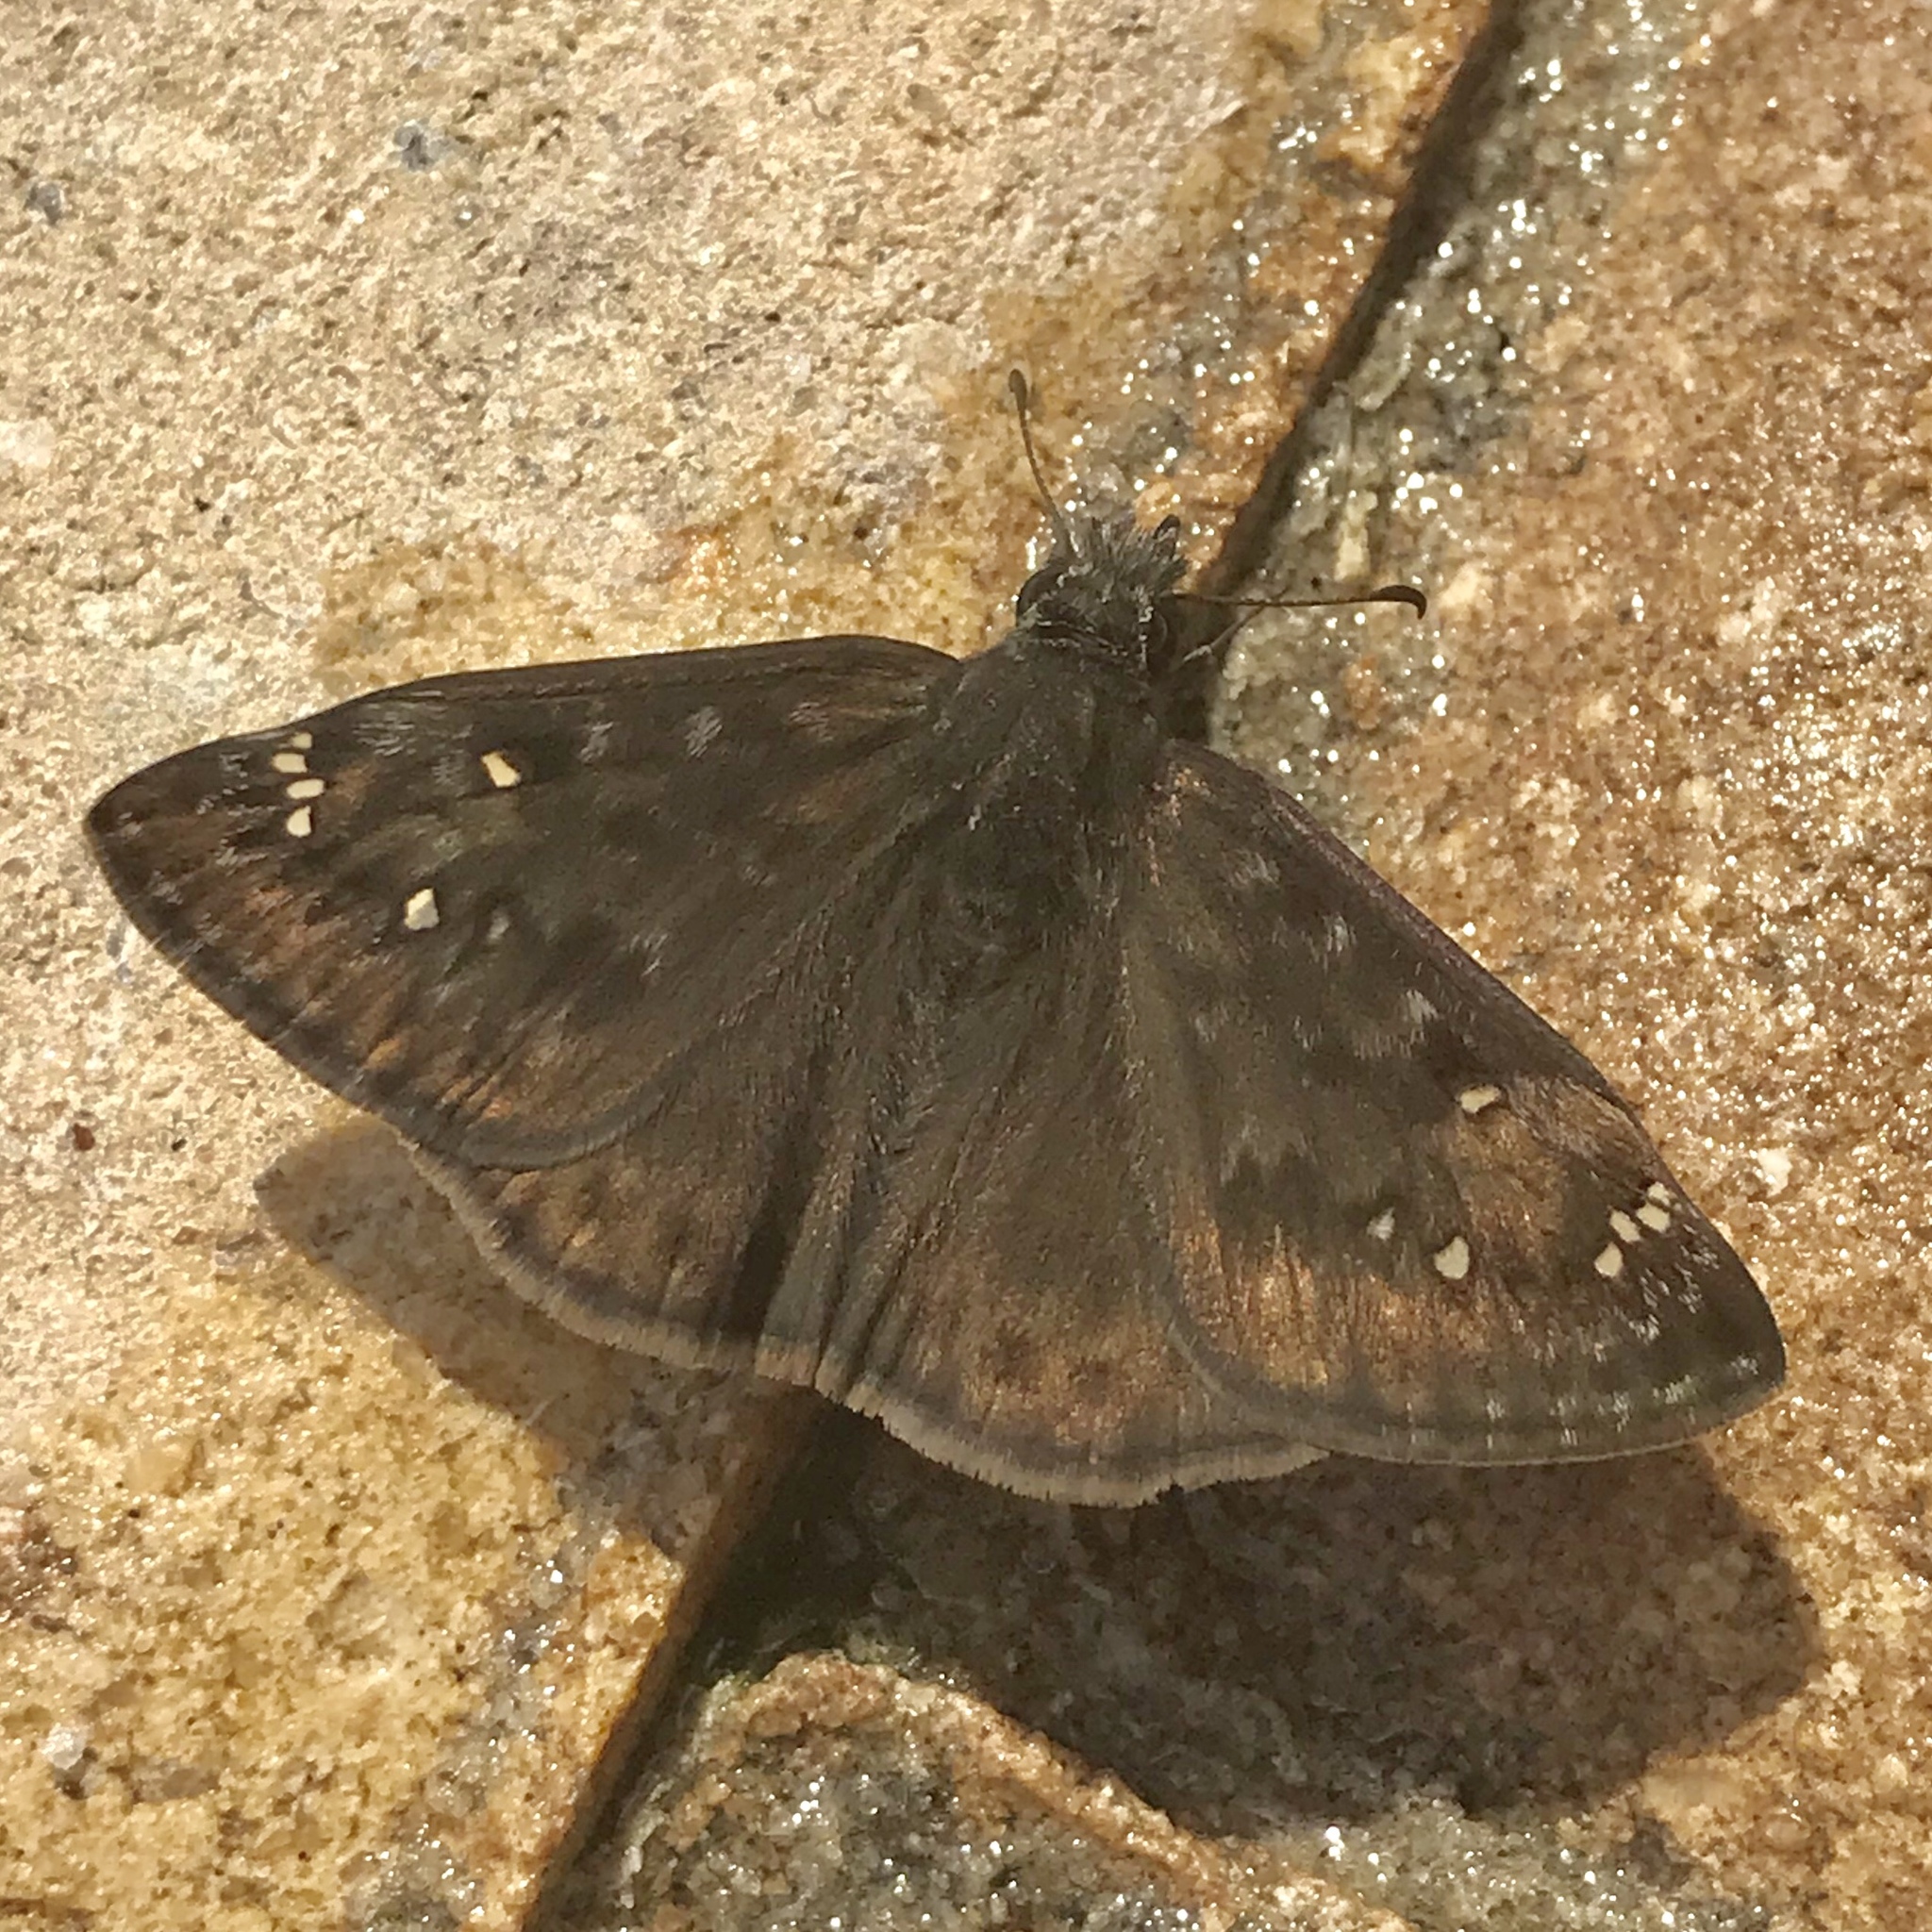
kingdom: Animalia
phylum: Arthropoda
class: Insecta
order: Lepidoptera
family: Hesperiidae
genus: Erynnis
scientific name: Erynnis horatius
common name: Horace's duskywing
